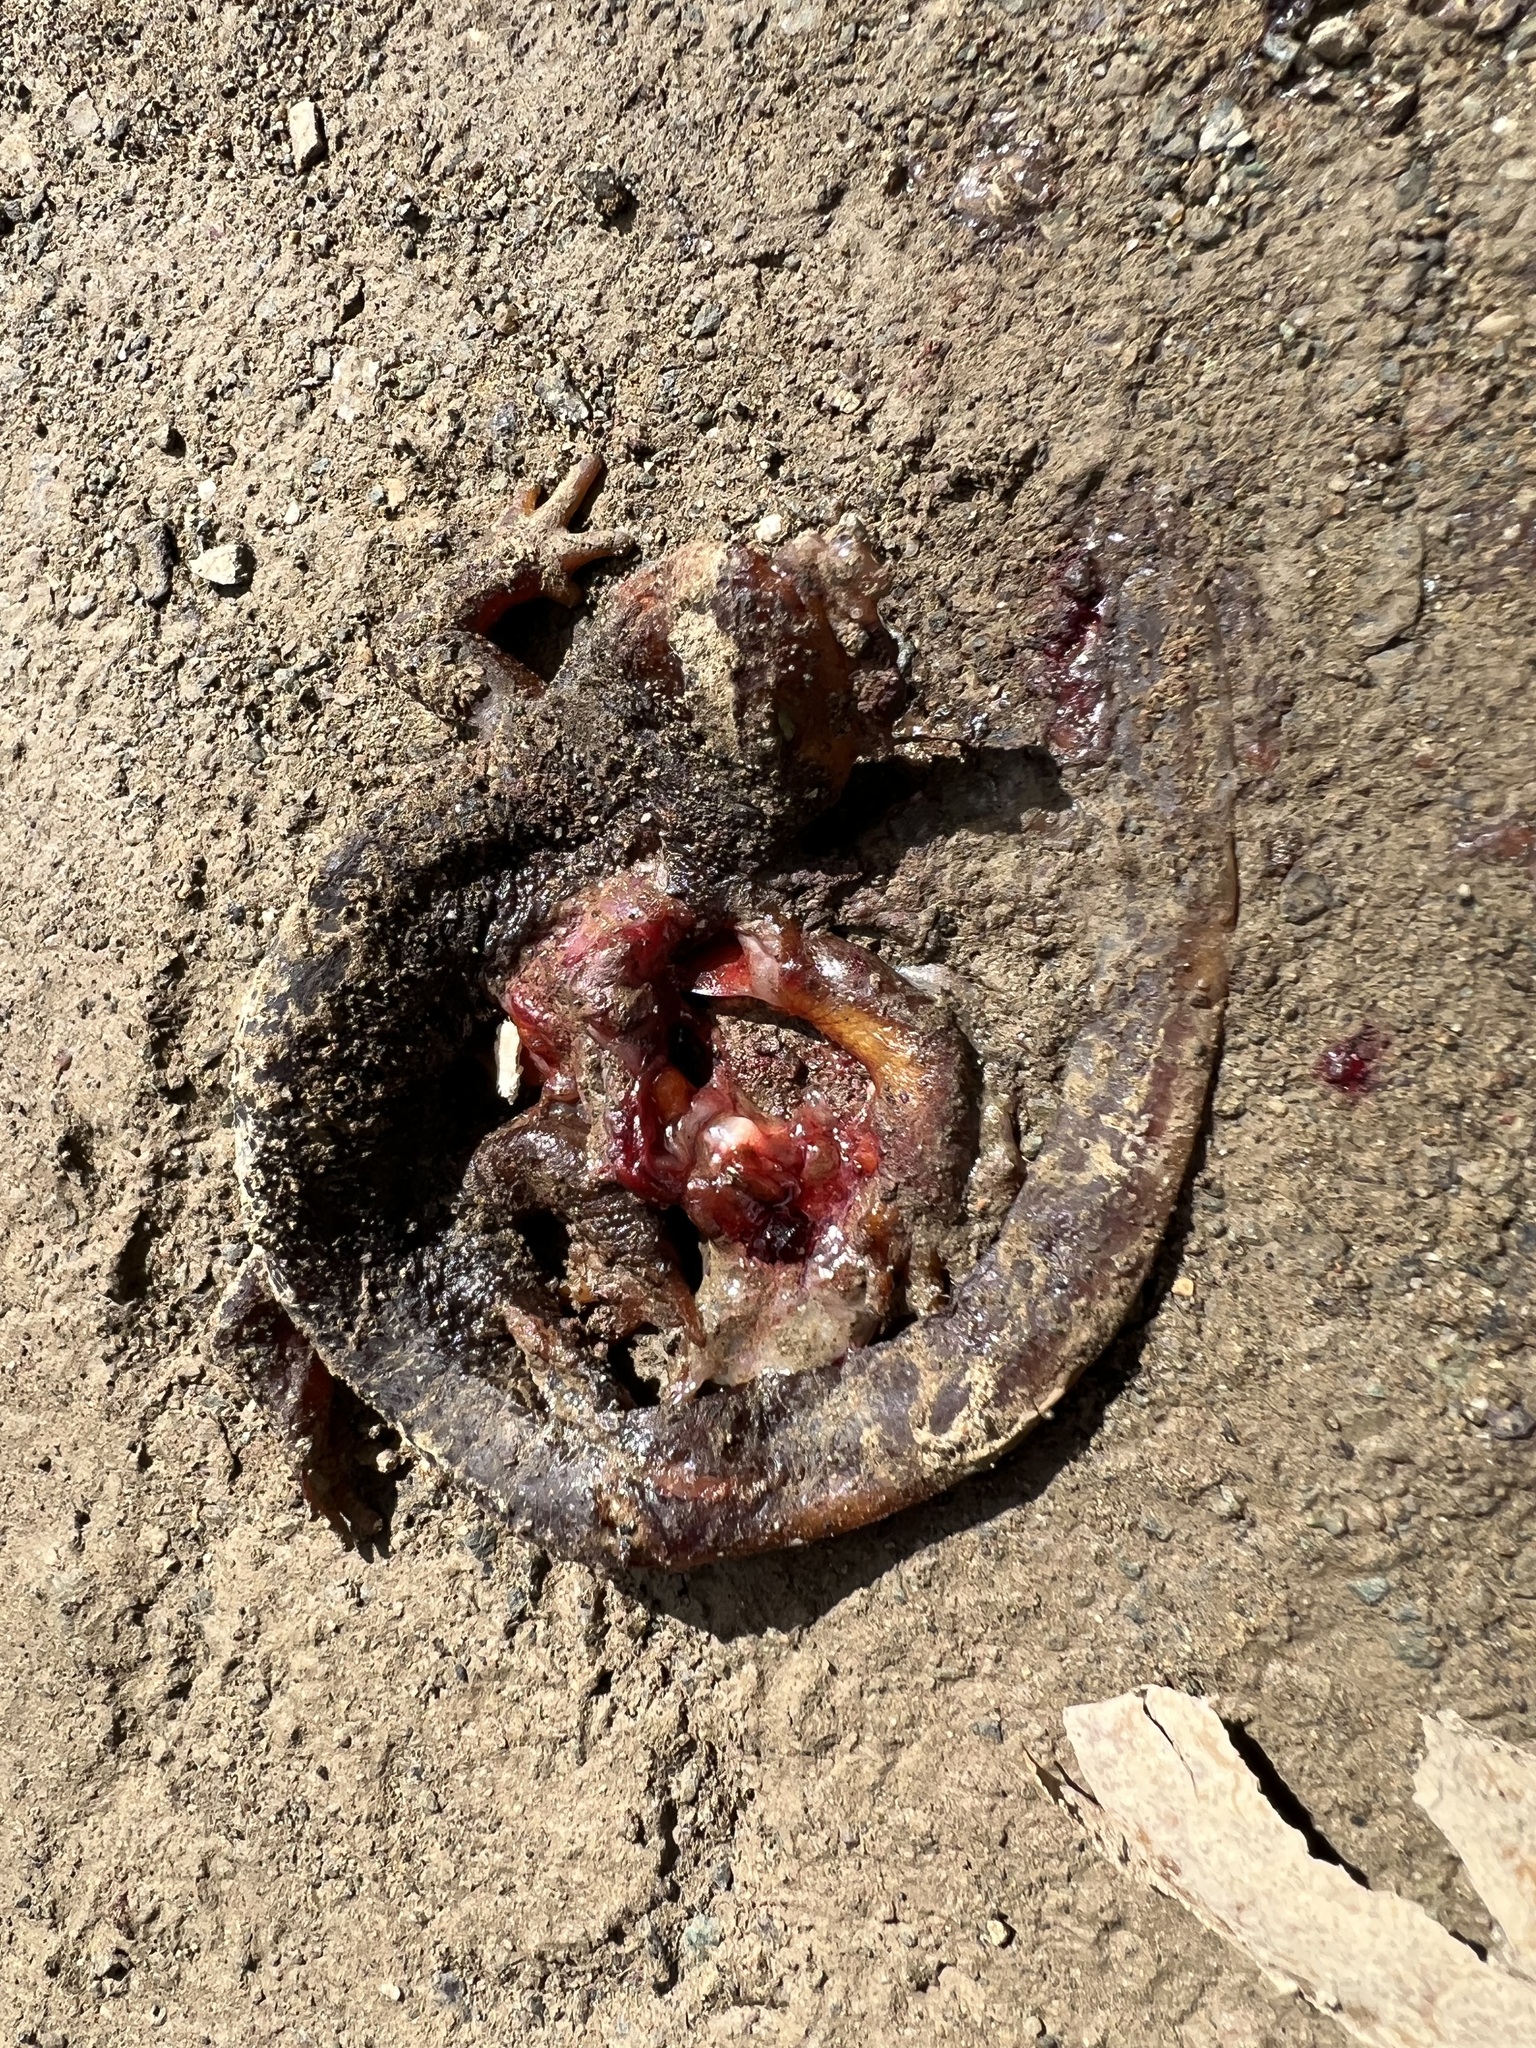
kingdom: Animalia
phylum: Chordata
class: Amphibia
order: Caudata
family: Salamandridae
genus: Taricha
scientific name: Taricha torosa
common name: California newt
